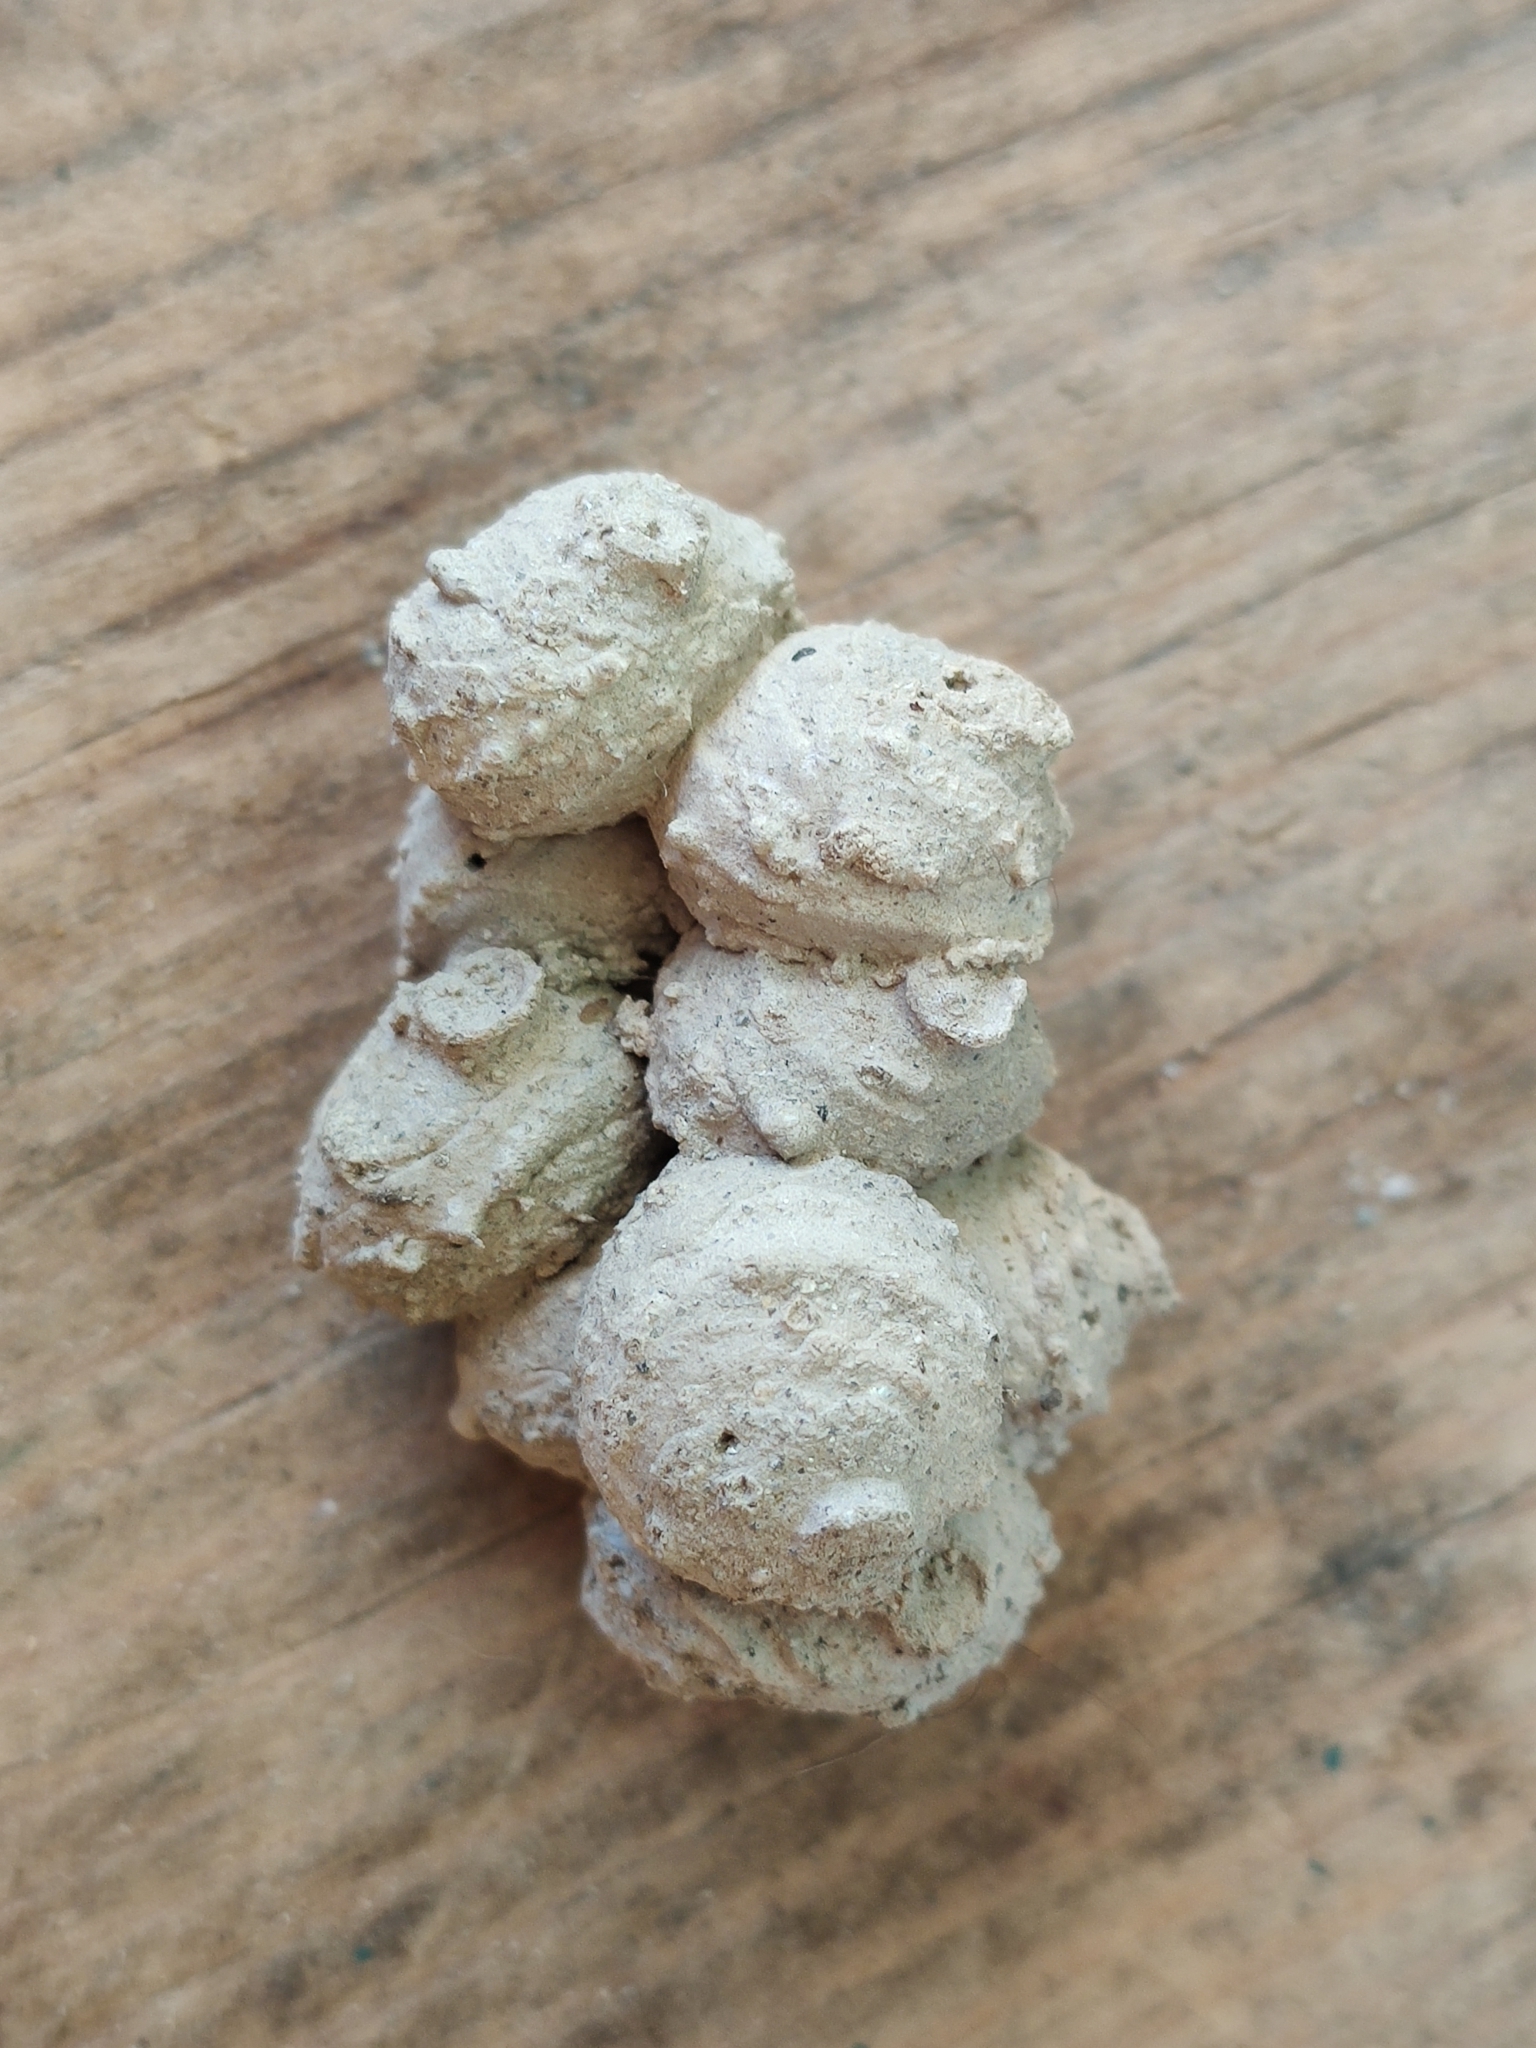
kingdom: Animalia
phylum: Arthropoda
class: Insecta
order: Hymenoptera
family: Eumenidae
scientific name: Eumenidae
